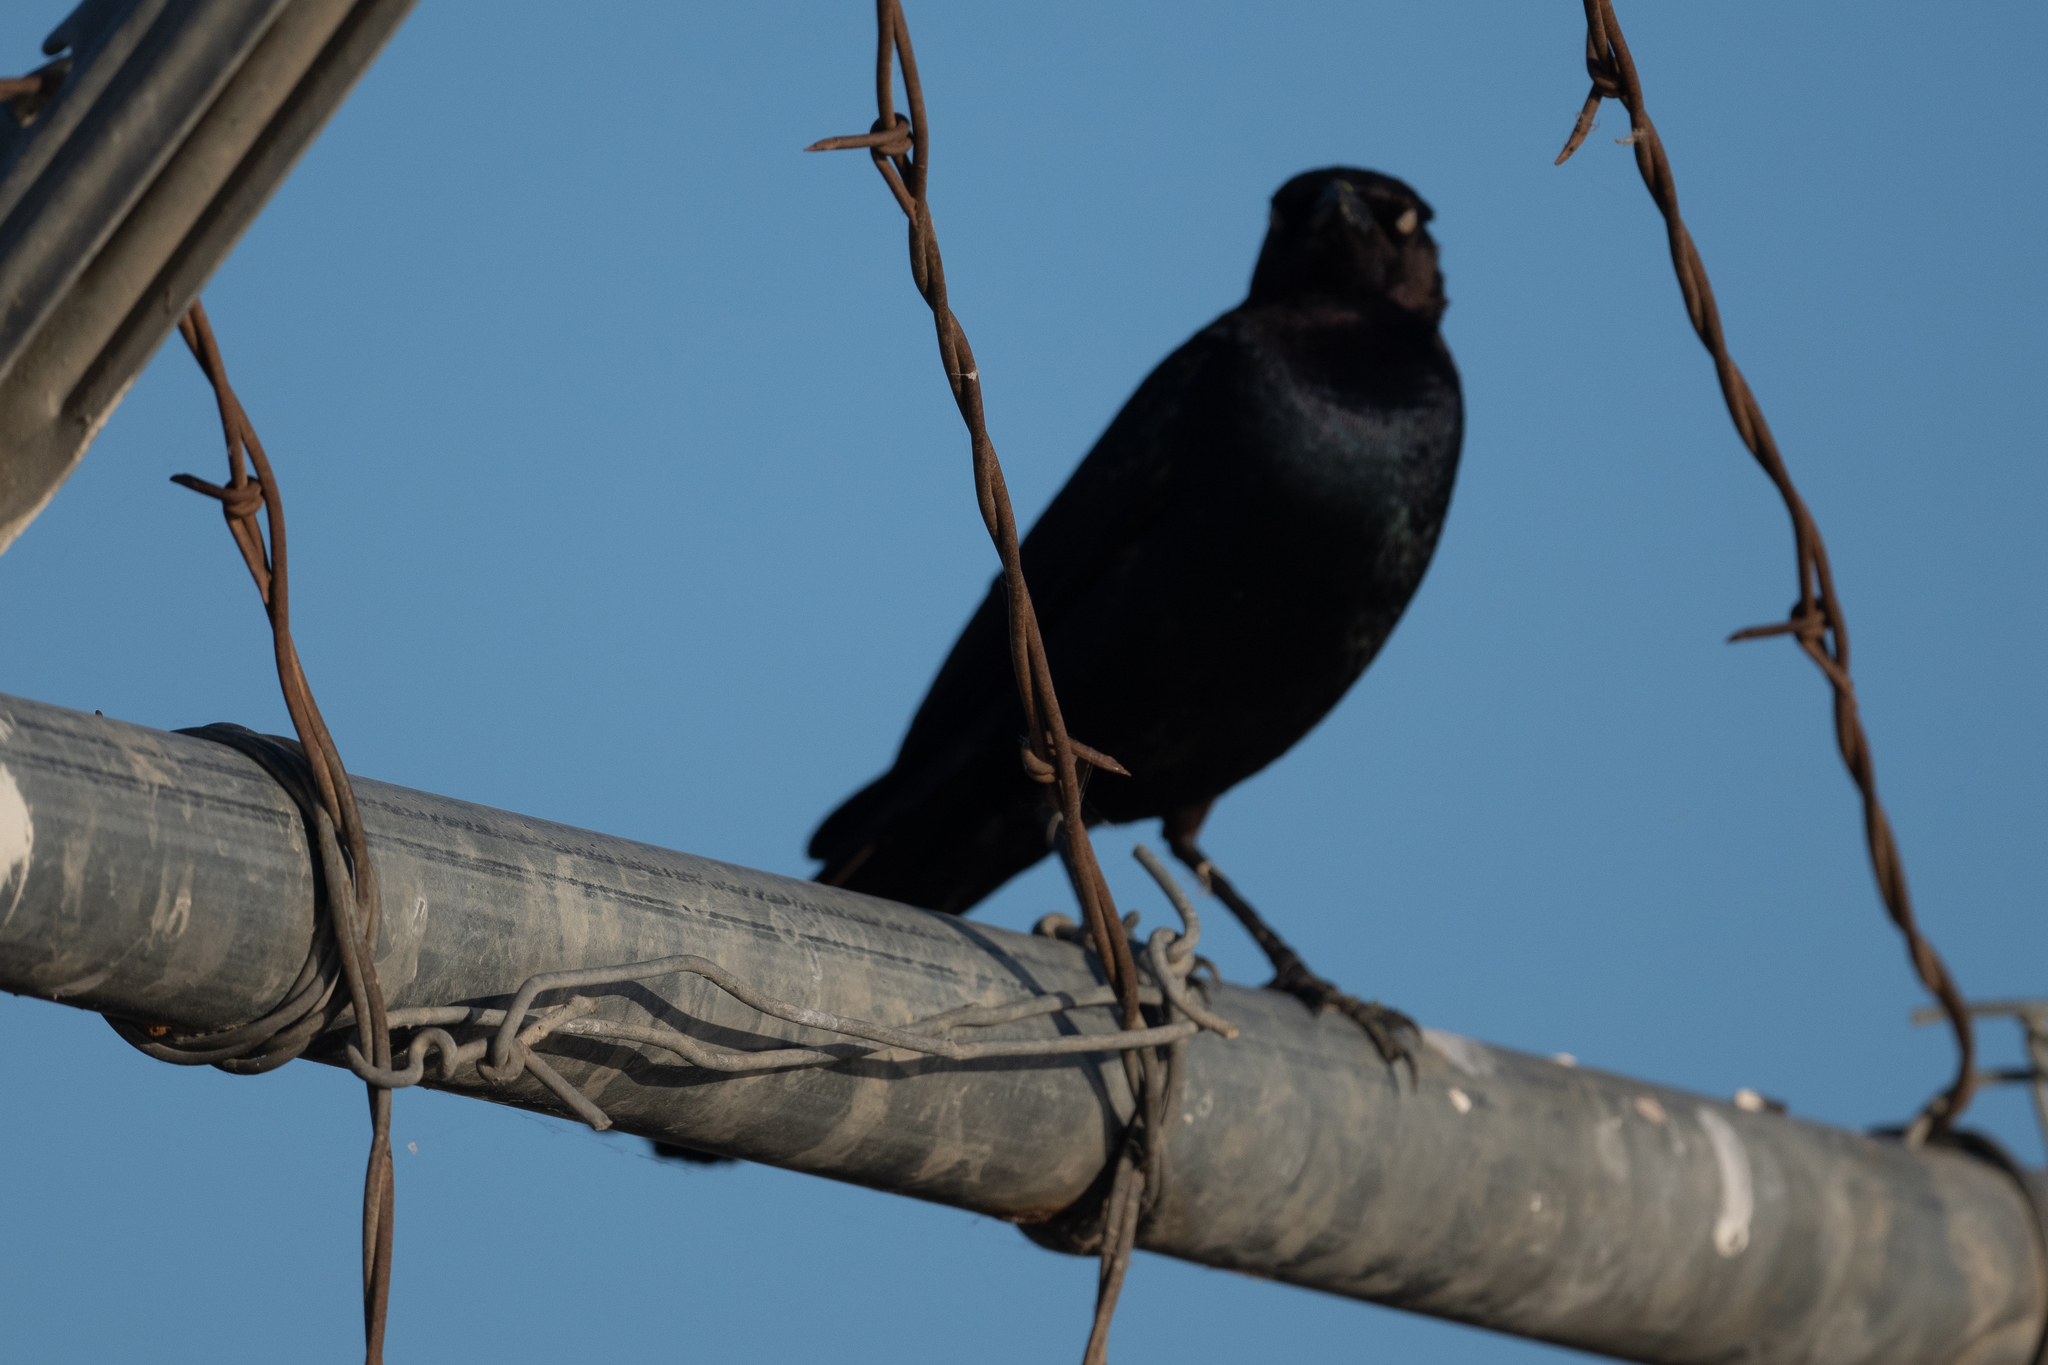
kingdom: Animalia
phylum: Chordata
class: Aves
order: Passeriformes
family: Icteridae
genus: Euphagus
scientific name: Euphagus cyanocephalus
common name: Brewer's blackbird
